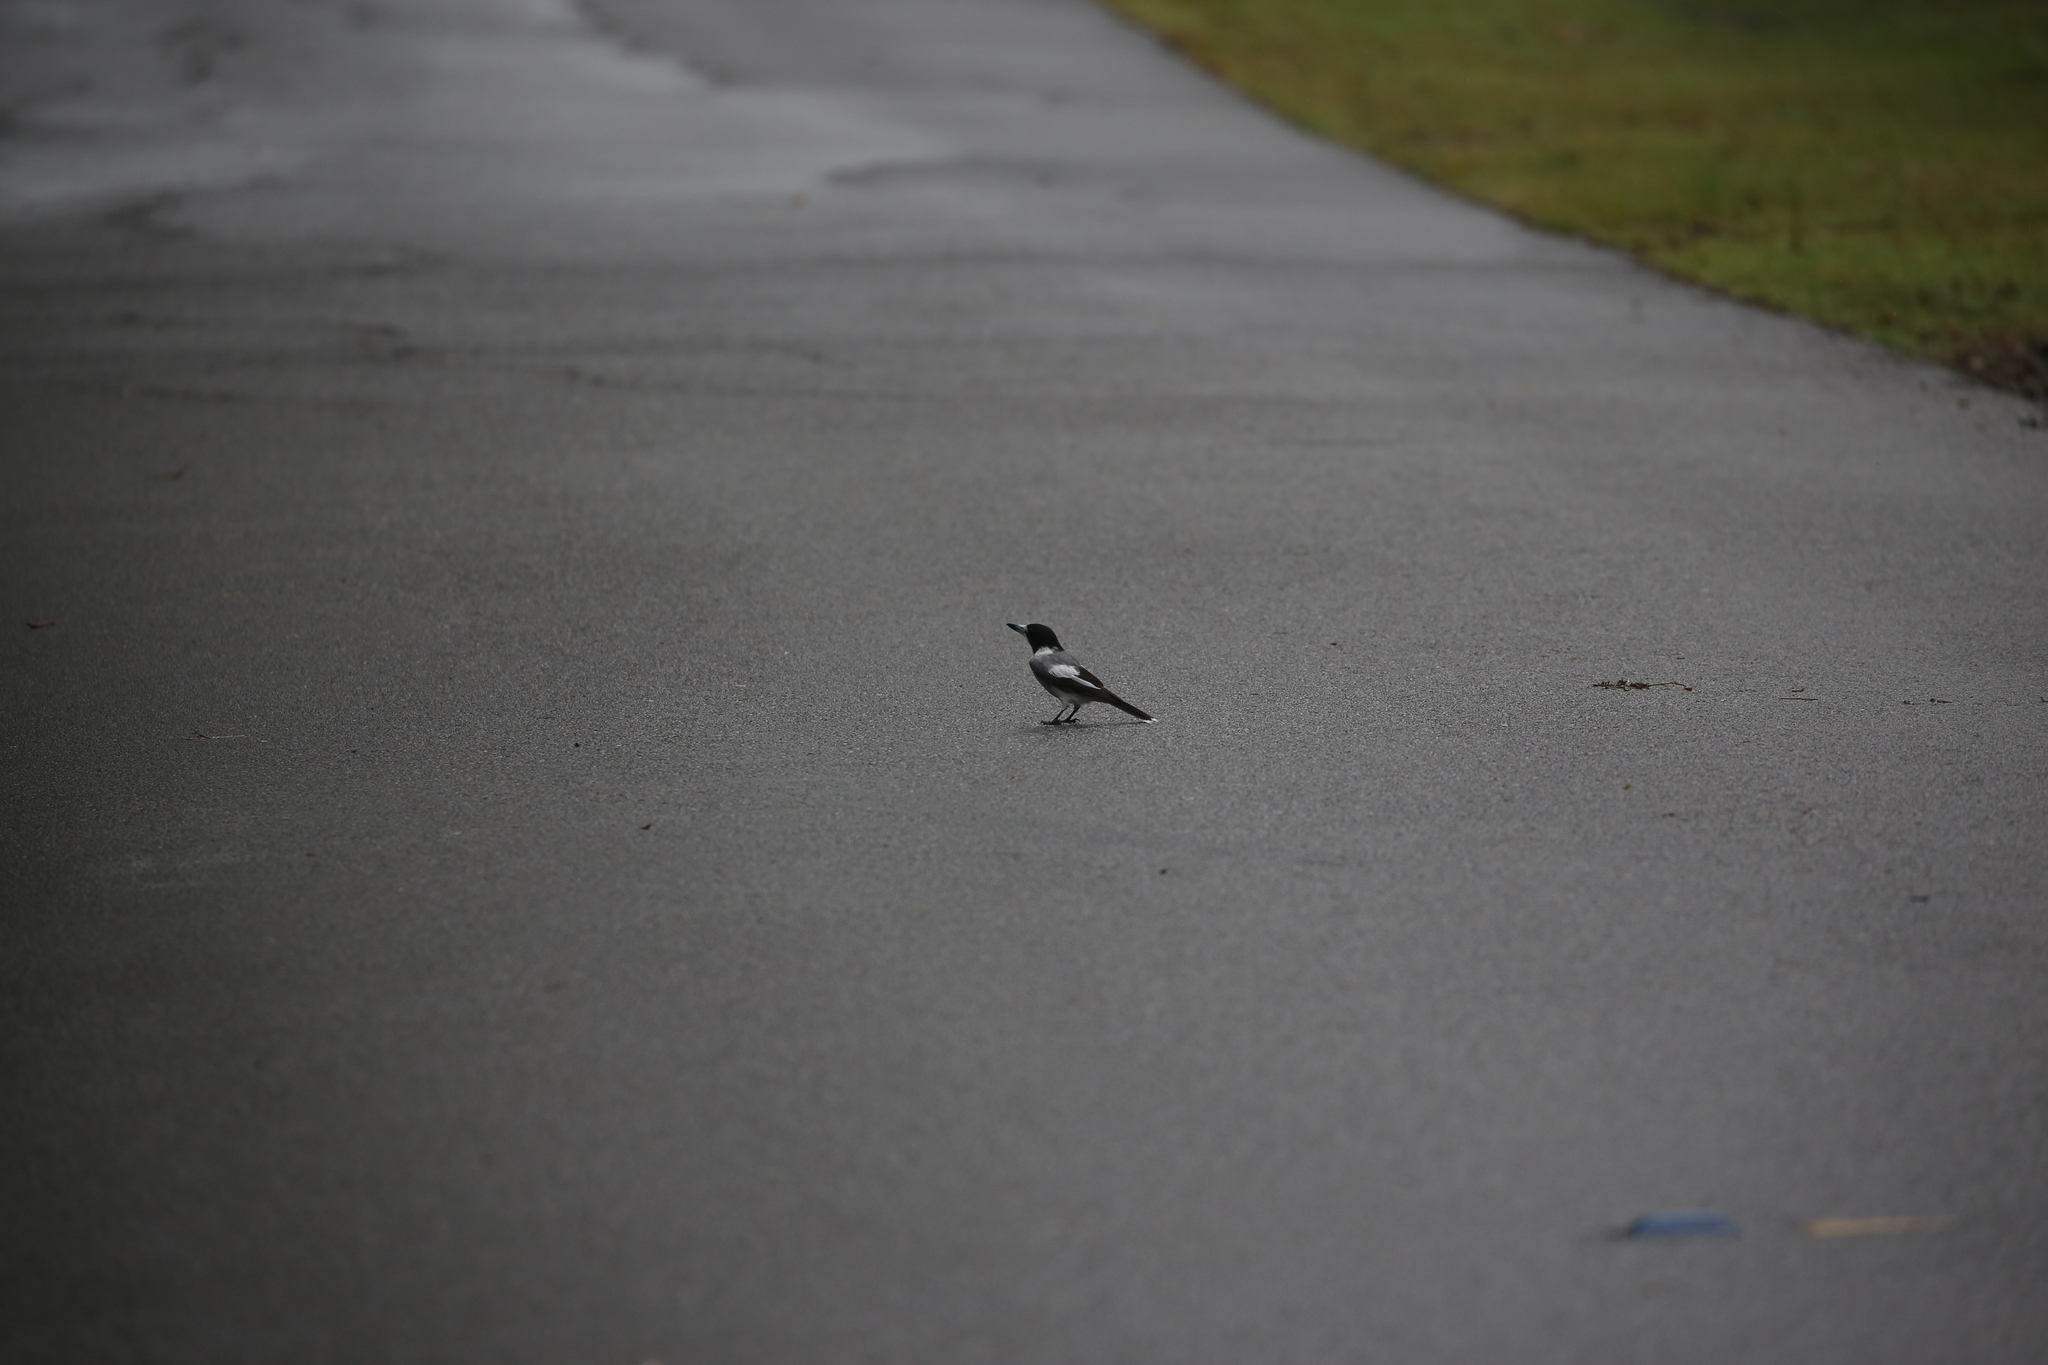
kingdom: Animalia
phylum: Chordata
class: Aves
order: Passeriformes
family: Cracticidae
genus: Cracticus
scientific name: Cracticus torquatus
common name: Grey butcherbird
